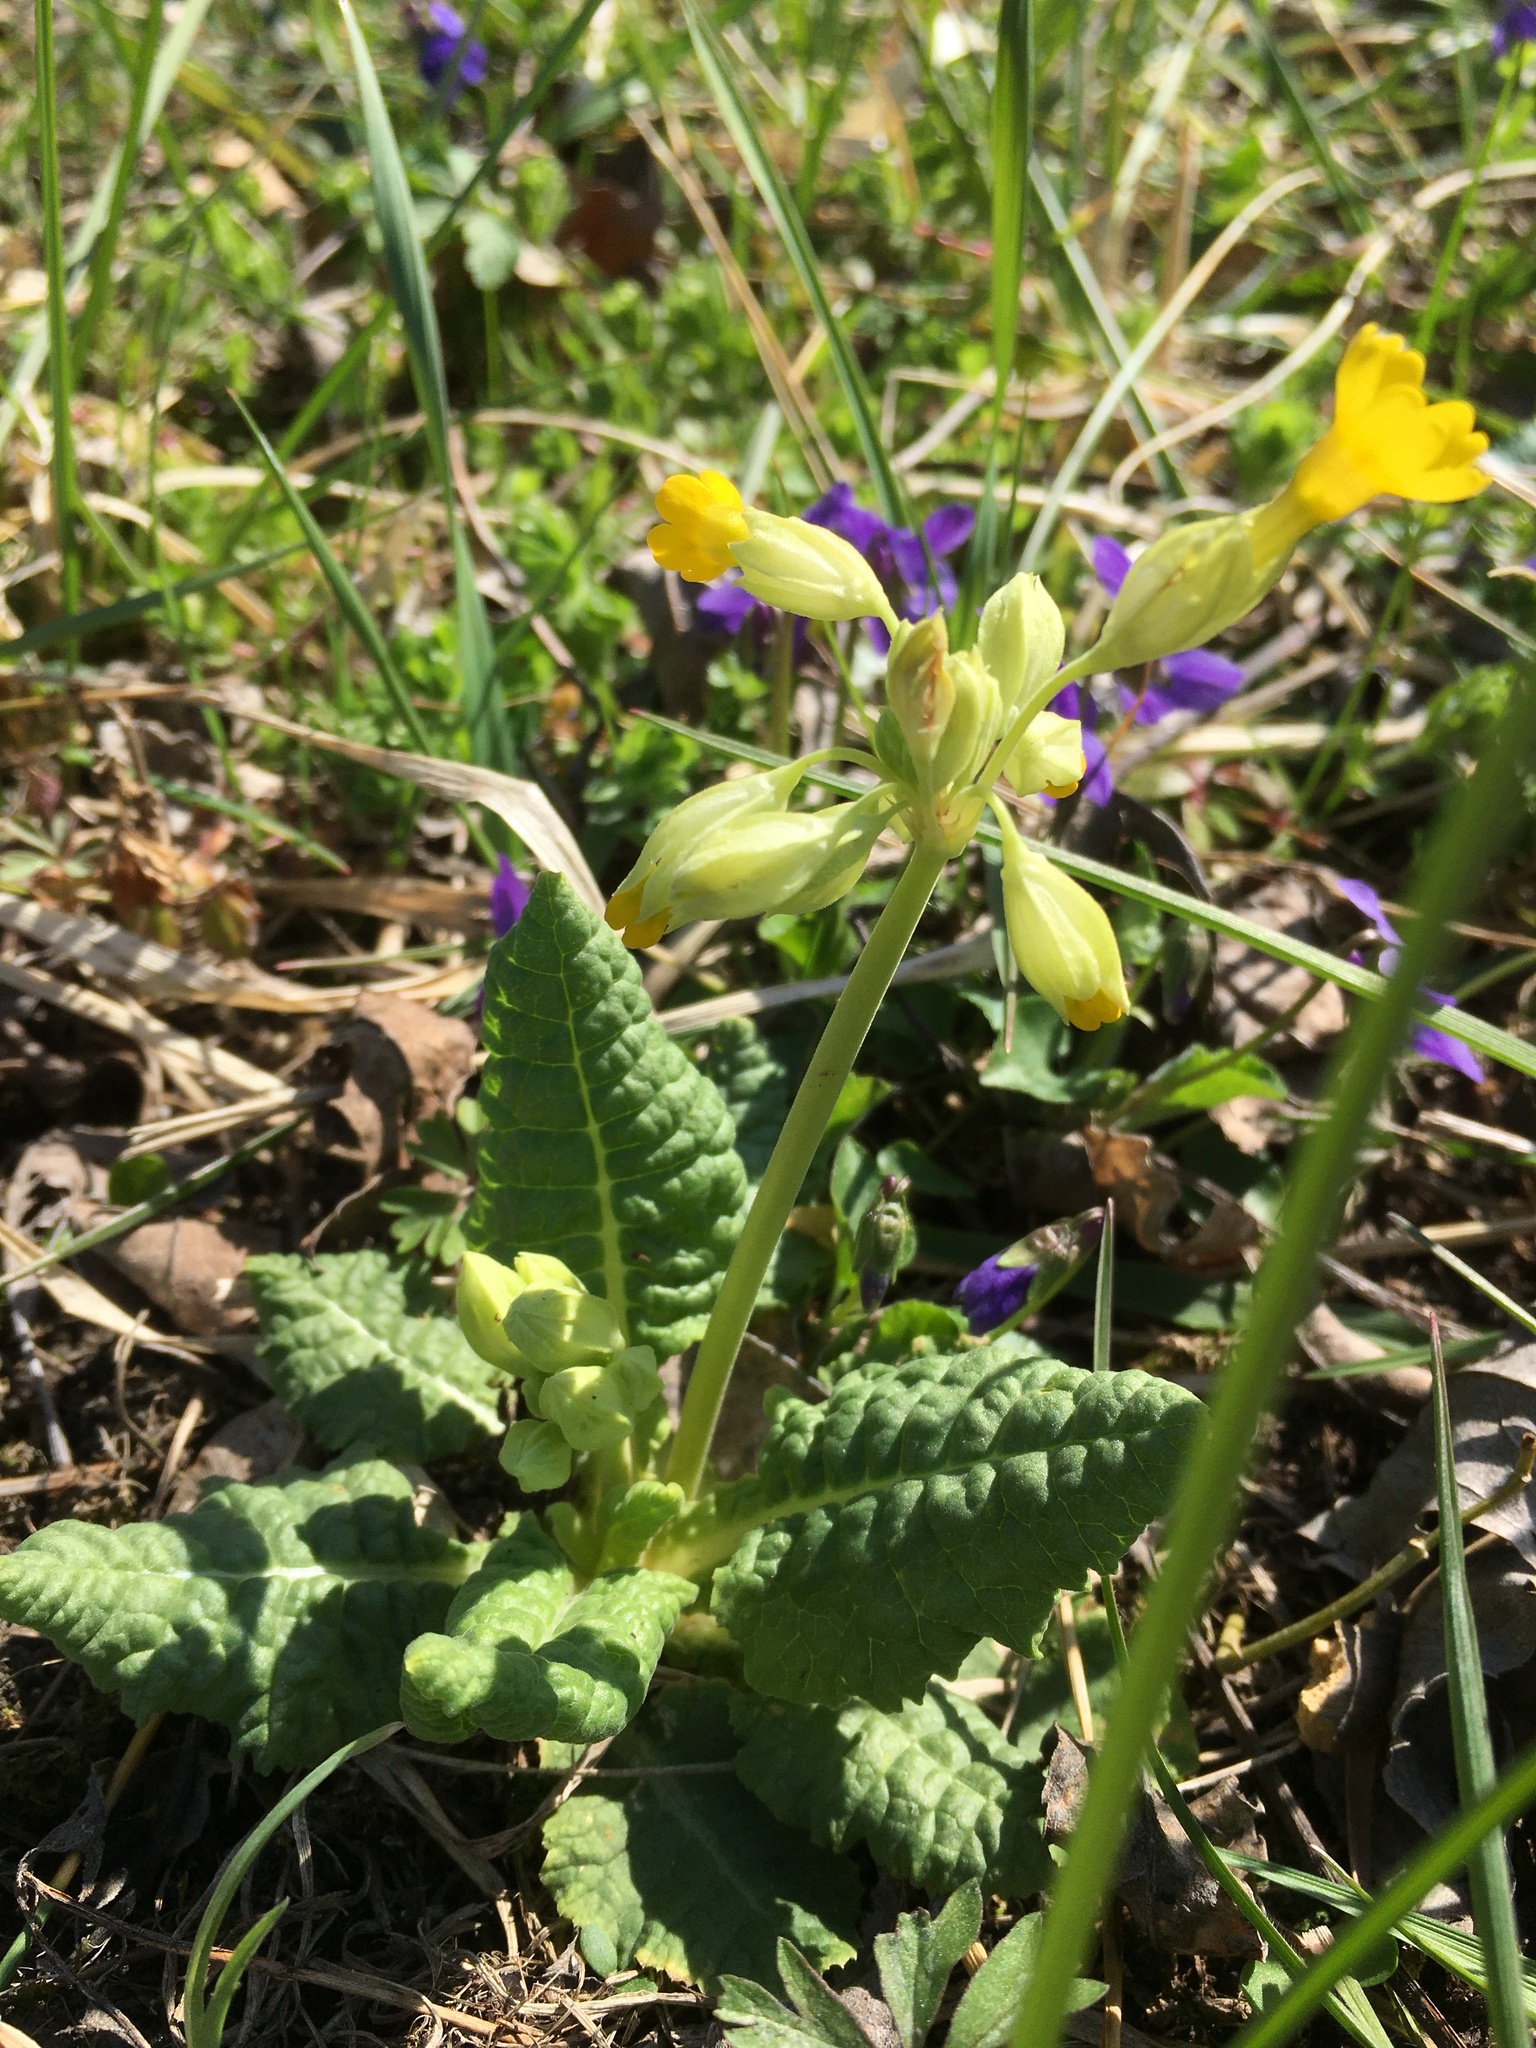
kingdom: Plantae
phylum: Tracheophyta
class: Magnoliopsida
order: Ericales
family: Primulaceae
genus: Primula
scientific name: Primula veris
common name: Cowslip
